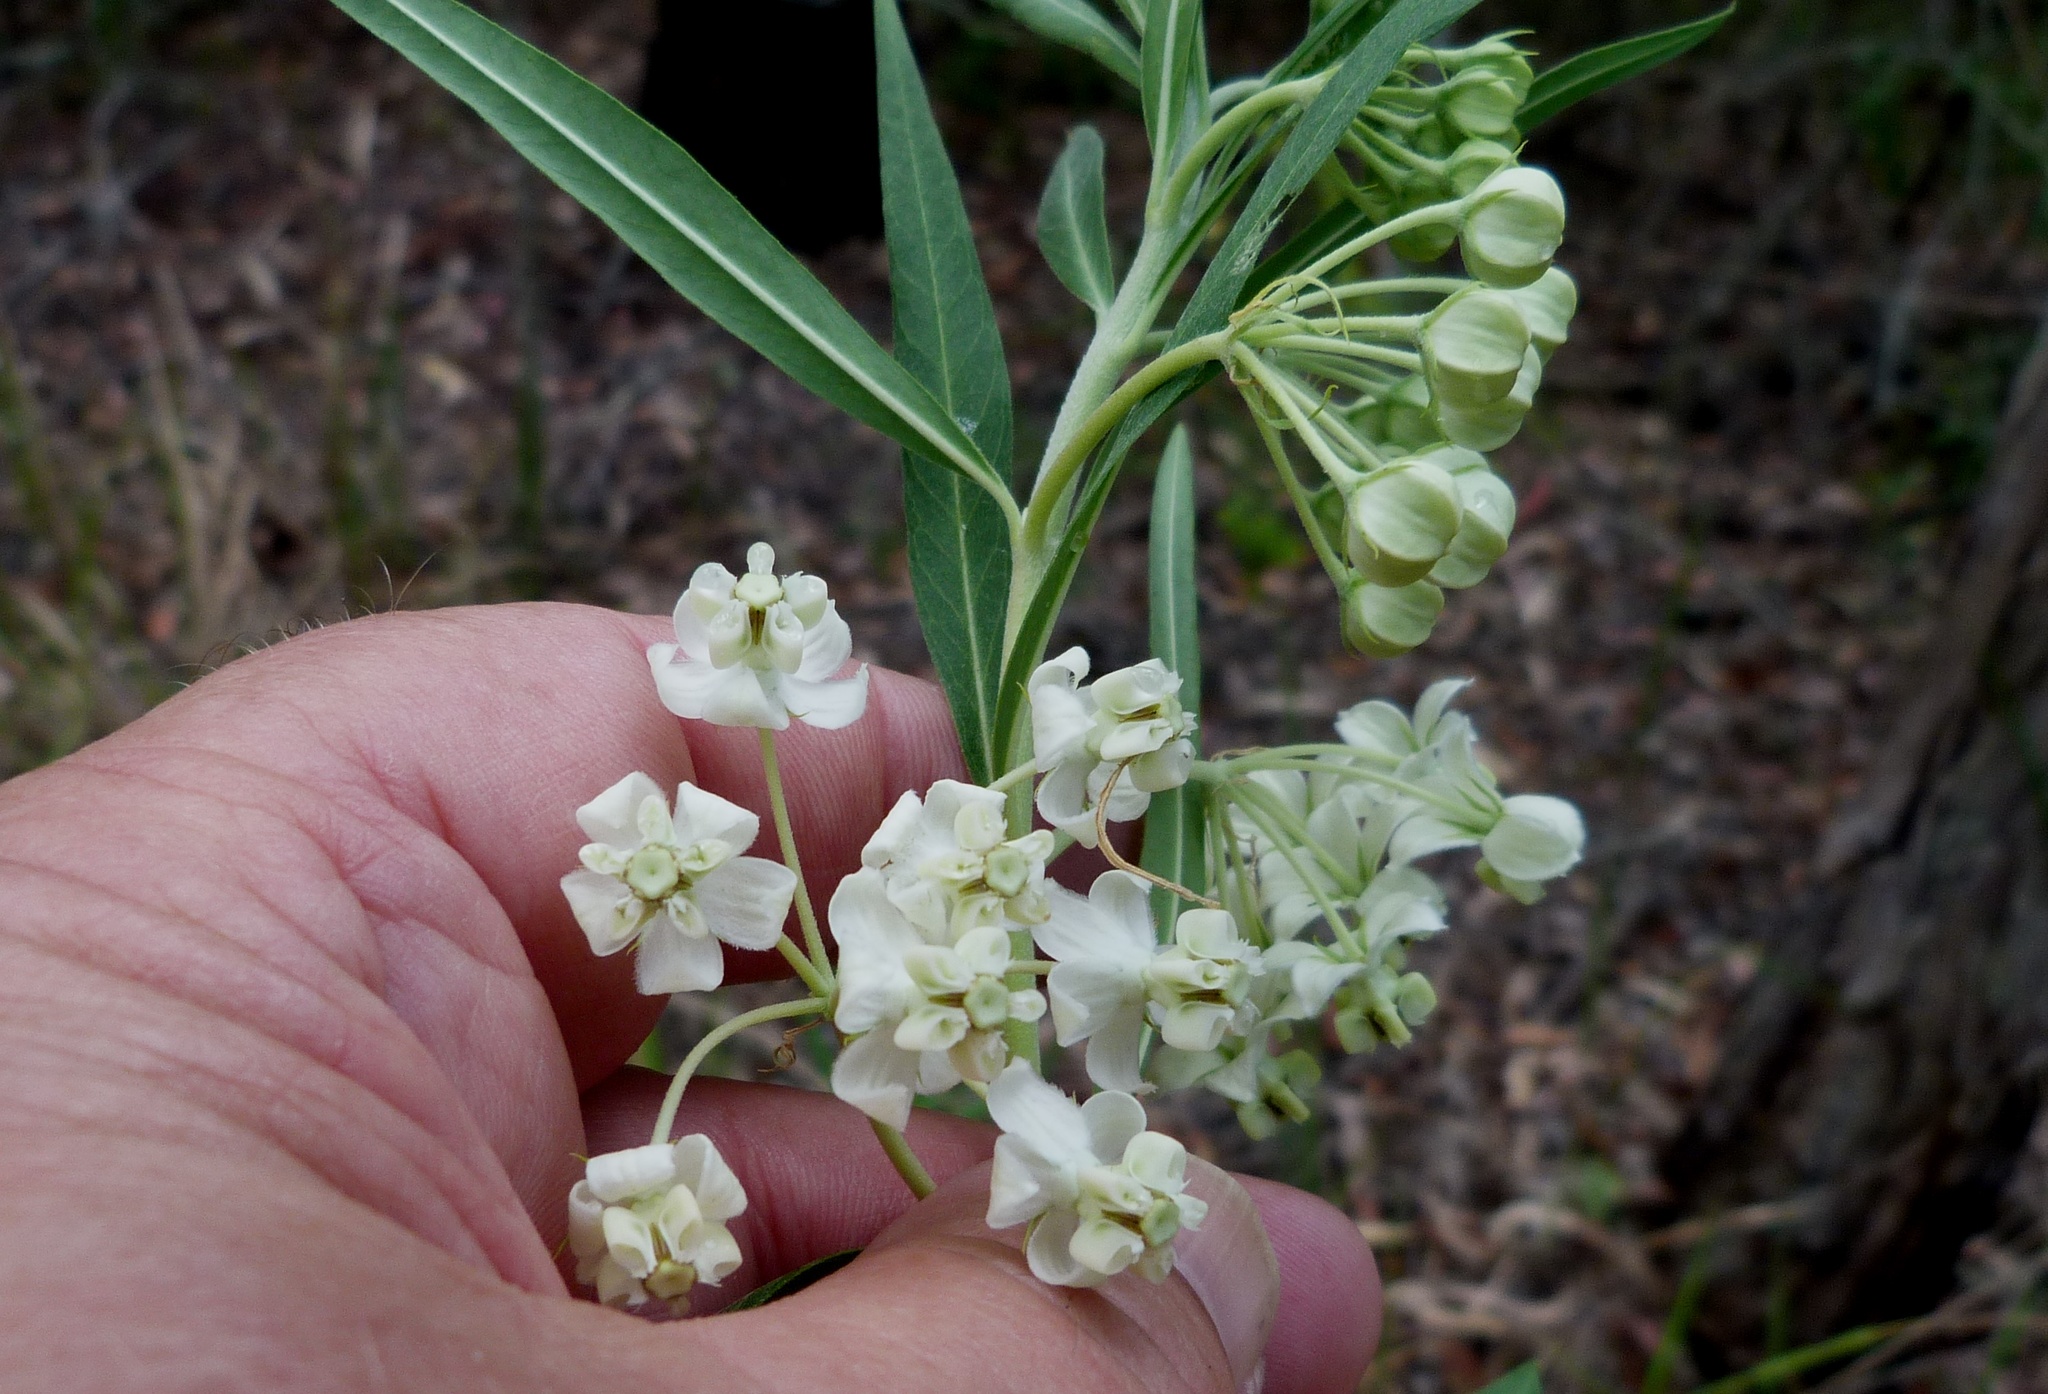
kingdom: Plantae
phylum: Tracheophyta
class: Magnoliopsida
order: Gentianales
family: Apocynaceae
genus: Gomphocarpus
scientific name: Gomphocarpus physocarpus
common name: Balloon cotton bush
